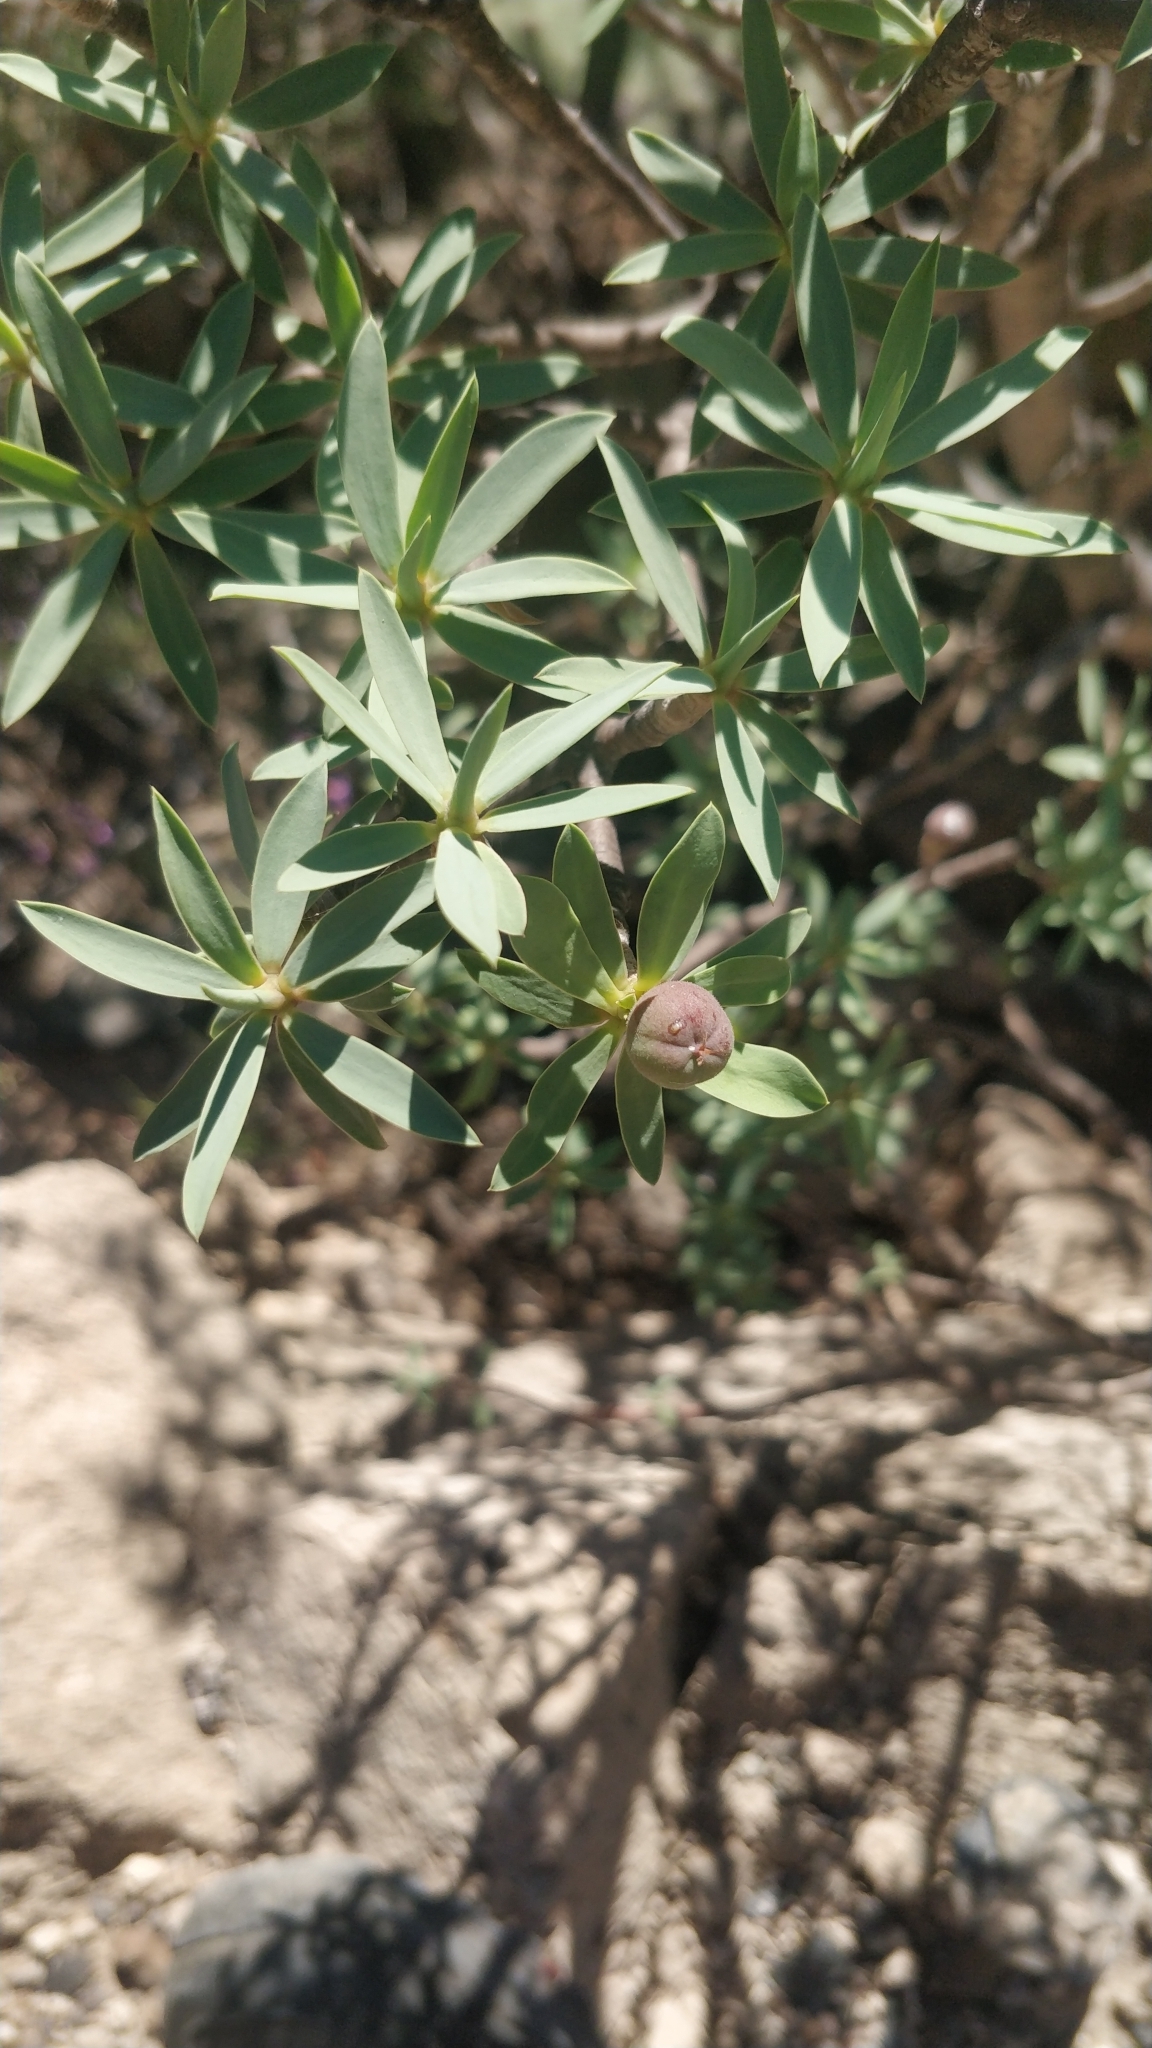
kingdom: Plantae
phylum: Tracheophyta
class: Magnoliopsida
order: Malpighiales
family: Euphorbiaceae
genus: Euphorbia
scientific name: Euphorbia balsamifera
